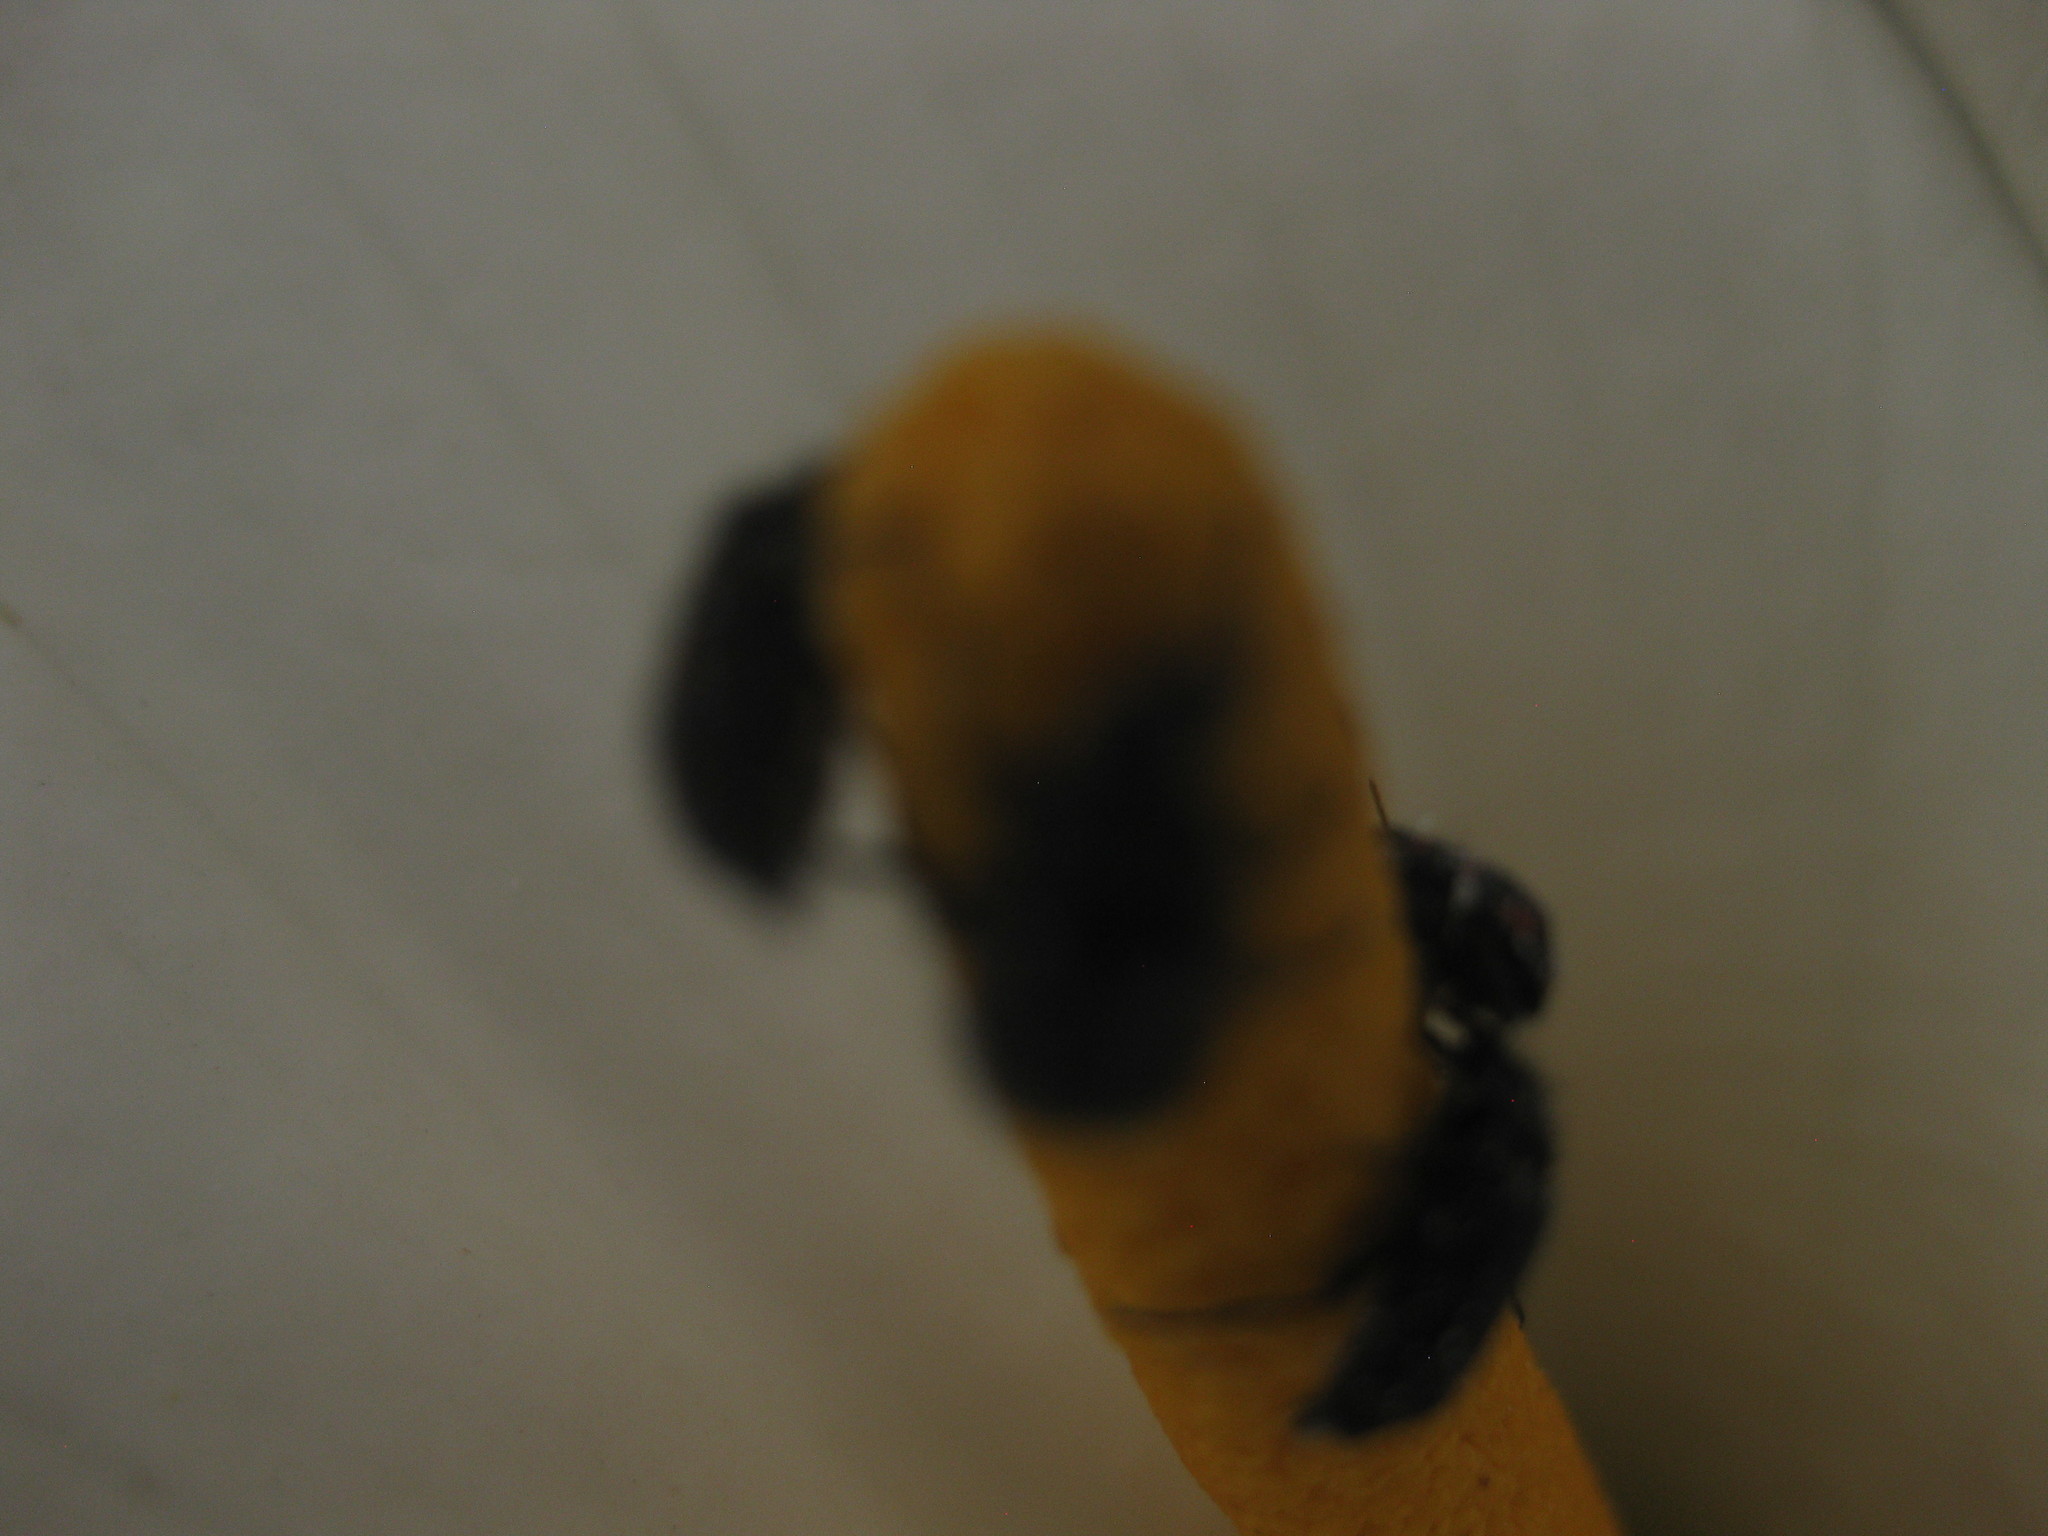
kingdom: Animalia
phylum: Arthropoda
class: Insecta
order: Coleoptera
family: Melyridae
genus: Astylus
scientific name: Astylus
